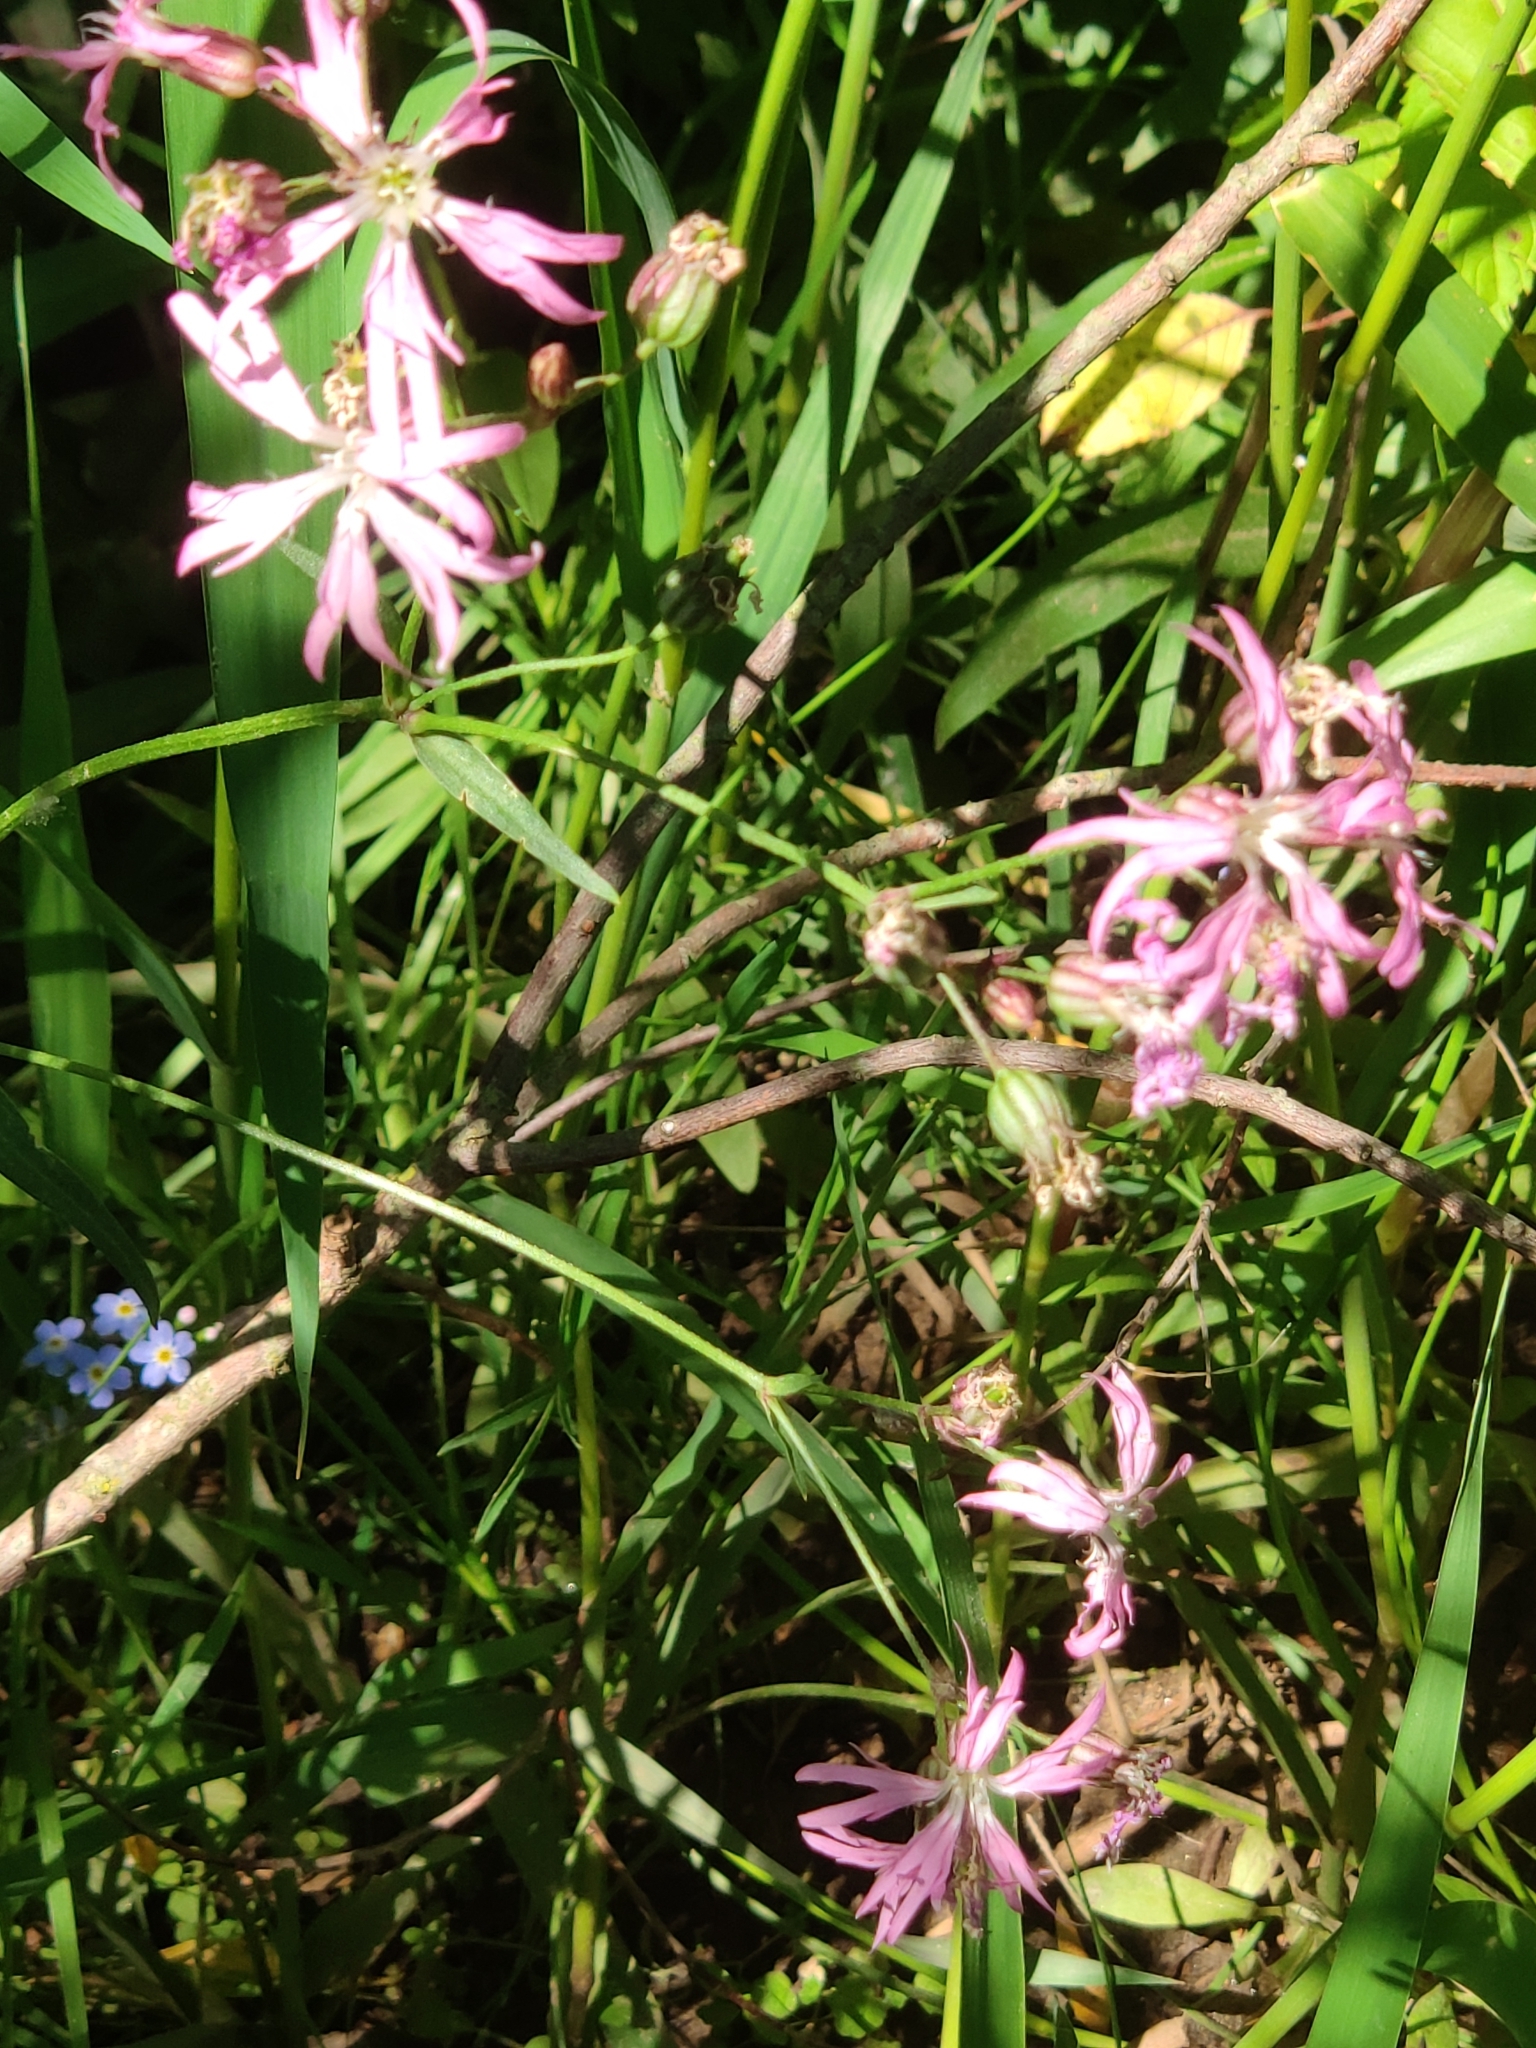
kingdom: Plantae
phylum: Tracheophyta
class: Magnoliopsida
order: Caryophyllales
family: Caryophyllaceae
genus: Silene
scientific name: Silene flos-cuculi
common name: Ragged-robin
